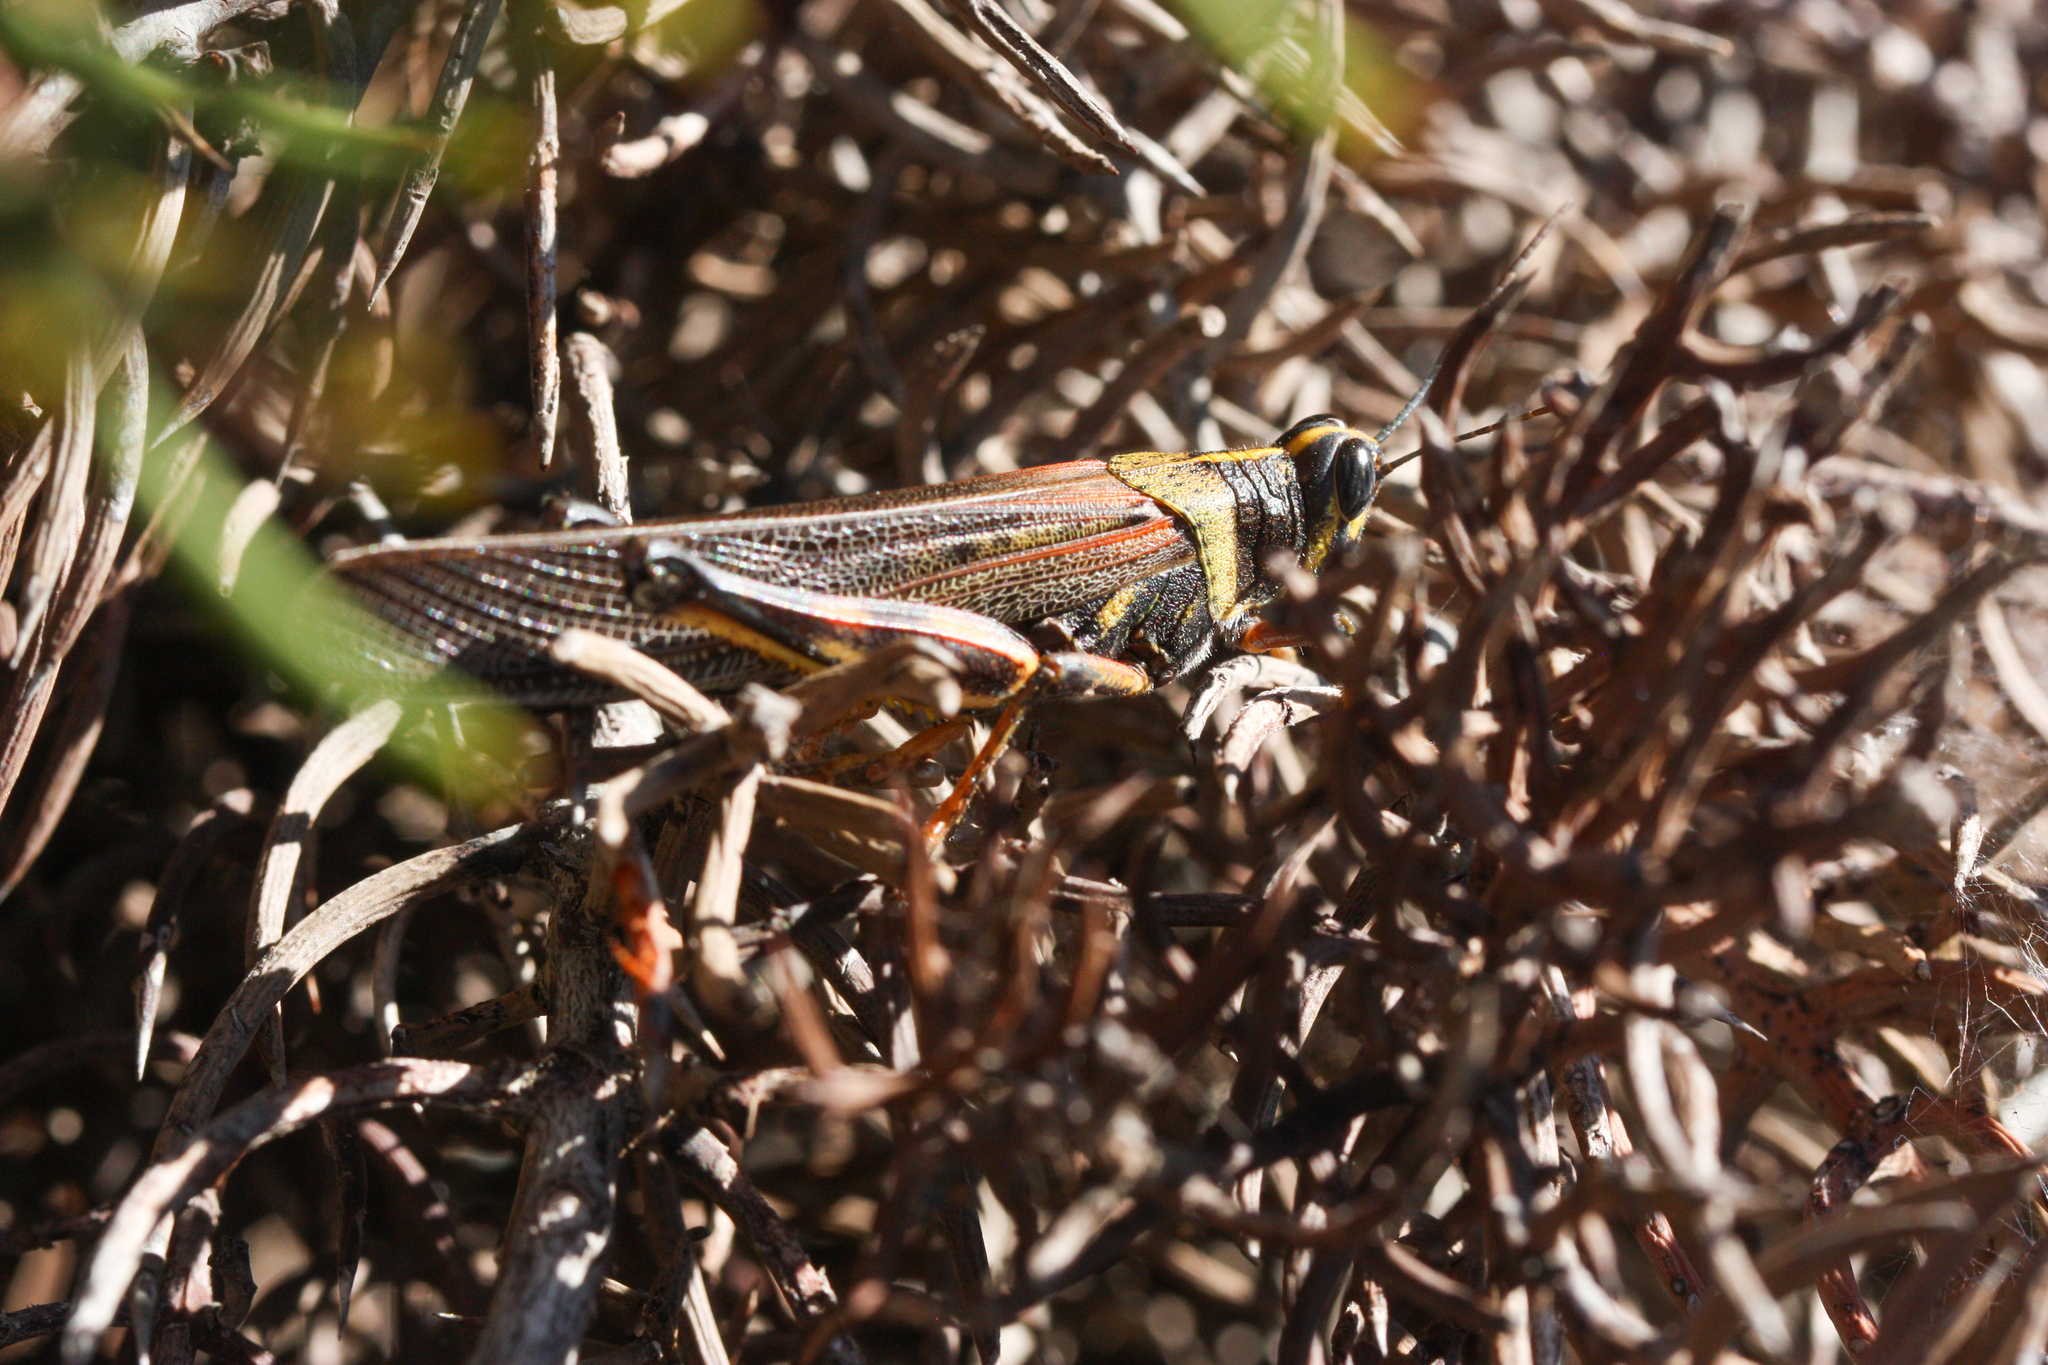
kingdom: Animalia
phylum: Arthropoda
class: Insecta
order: Orthoptera
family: Acrididae
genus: Schistocerca
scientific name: Schistocerca melanocera
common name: Large painted locust
